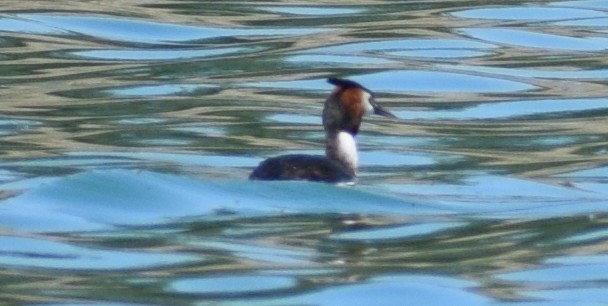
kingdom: Animalia
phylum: Chordata
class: Aves
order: Podicipediformes
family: Podicipedidae
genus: Podiceps
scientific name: Podiceps cristatus
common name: Great crested grebe
